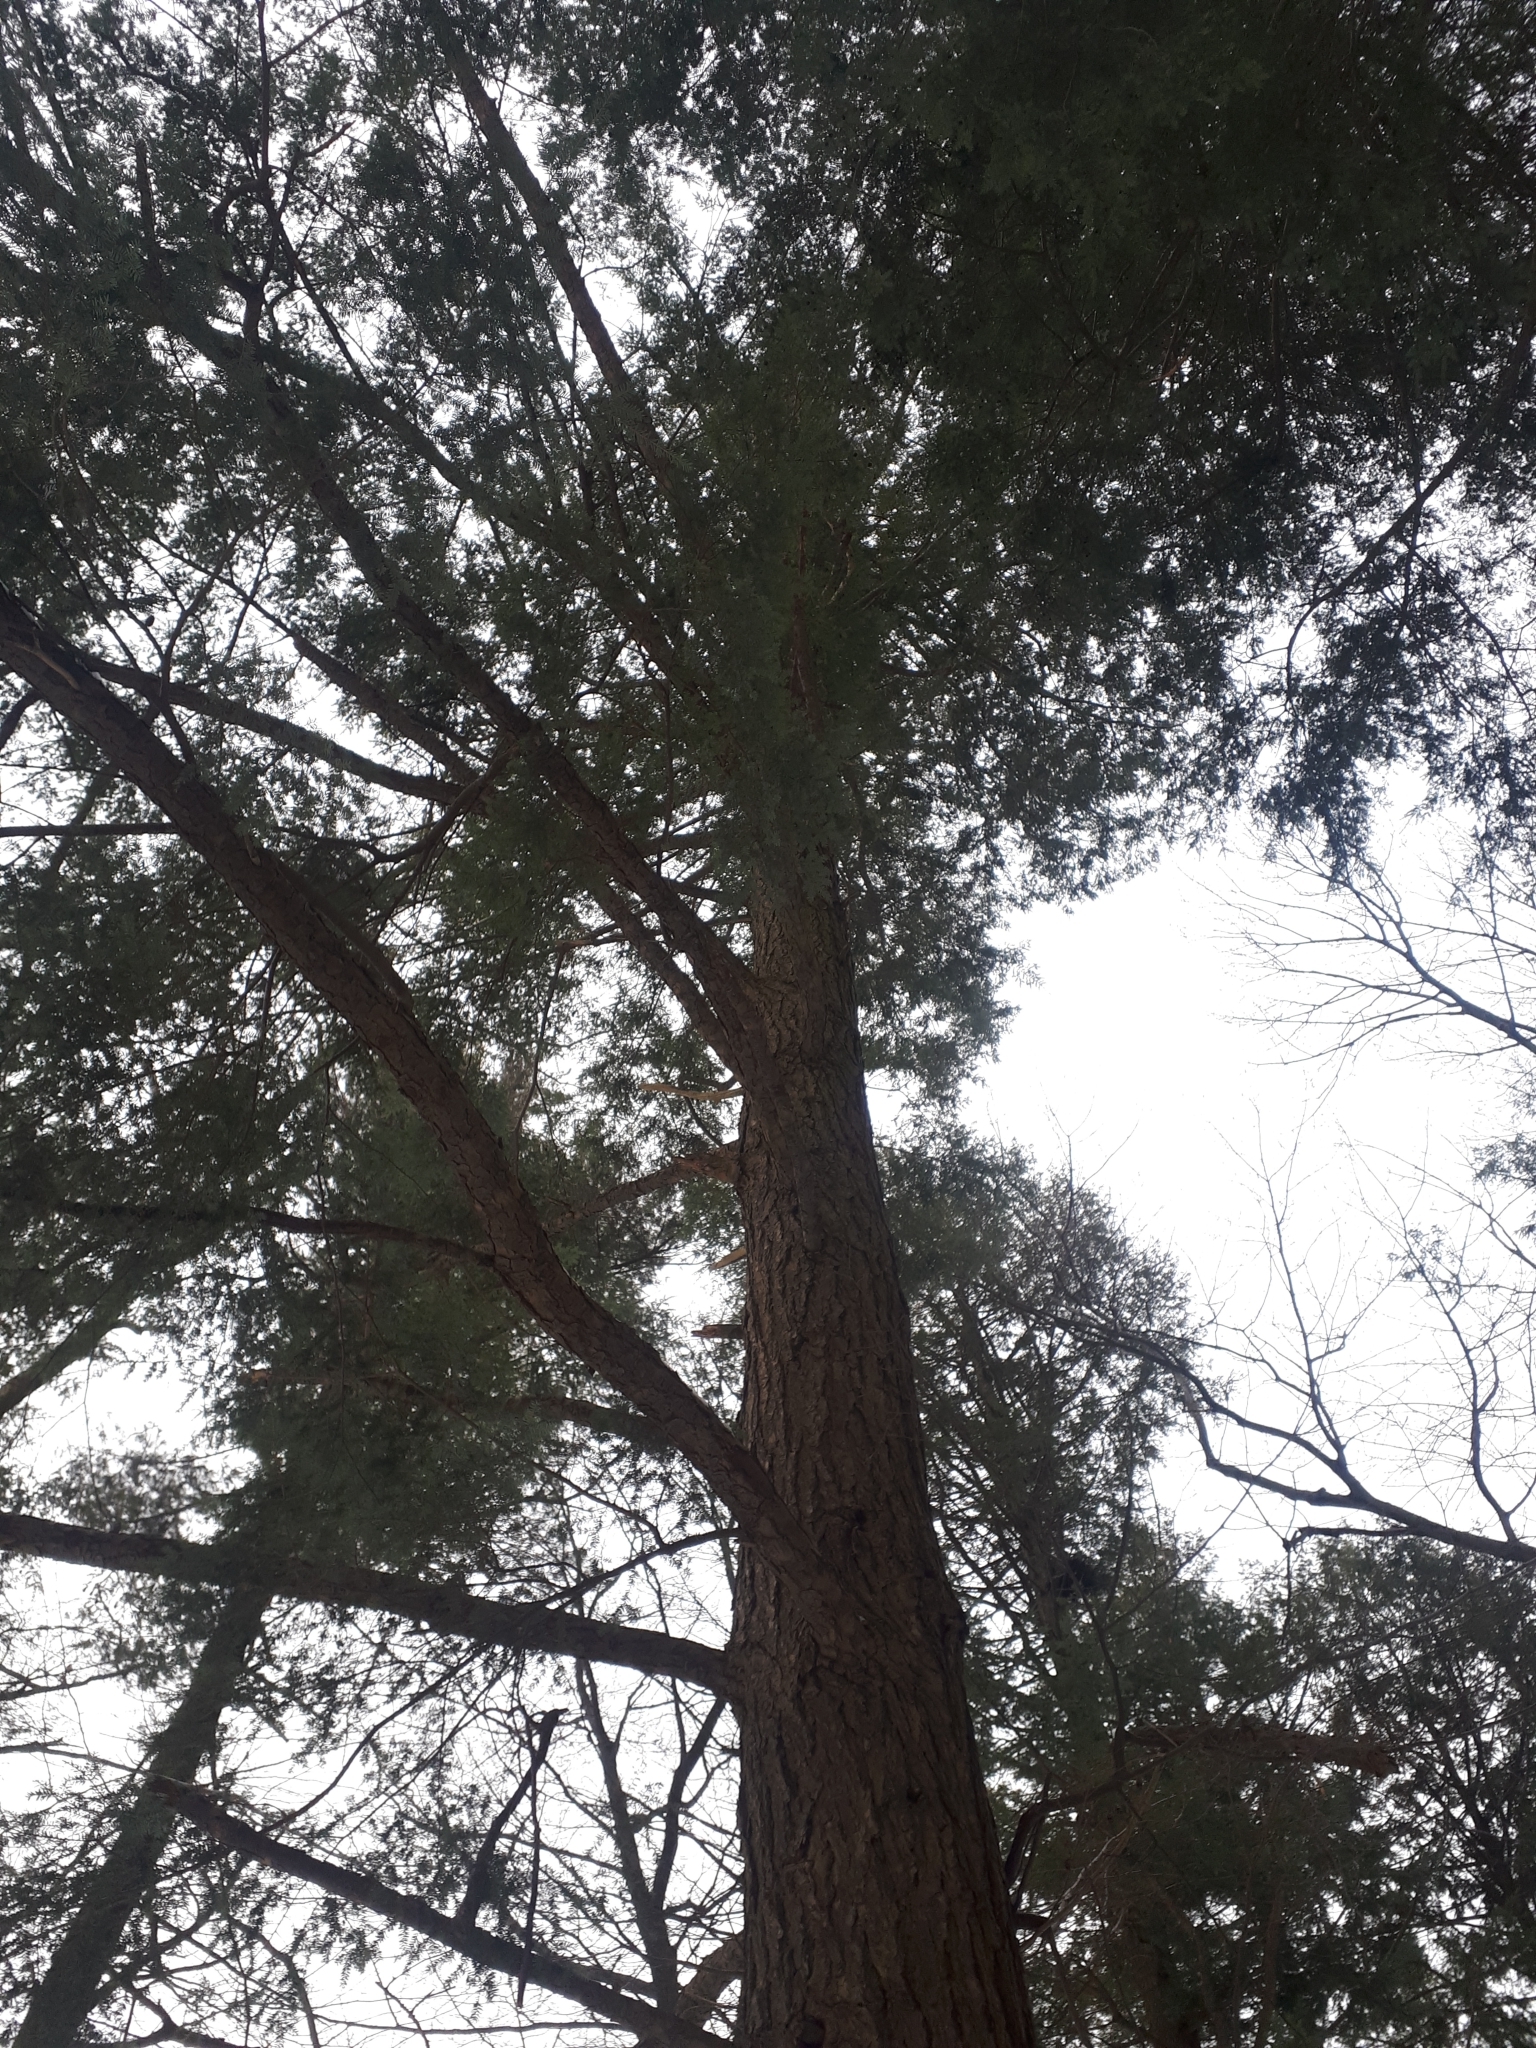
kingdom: Plantae
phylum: Tracheophyta
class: Pinopsida
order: Pinales
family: Pinaceae
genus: Tsuga
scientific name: Tsuga canadensis
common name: Eastern hemlock
